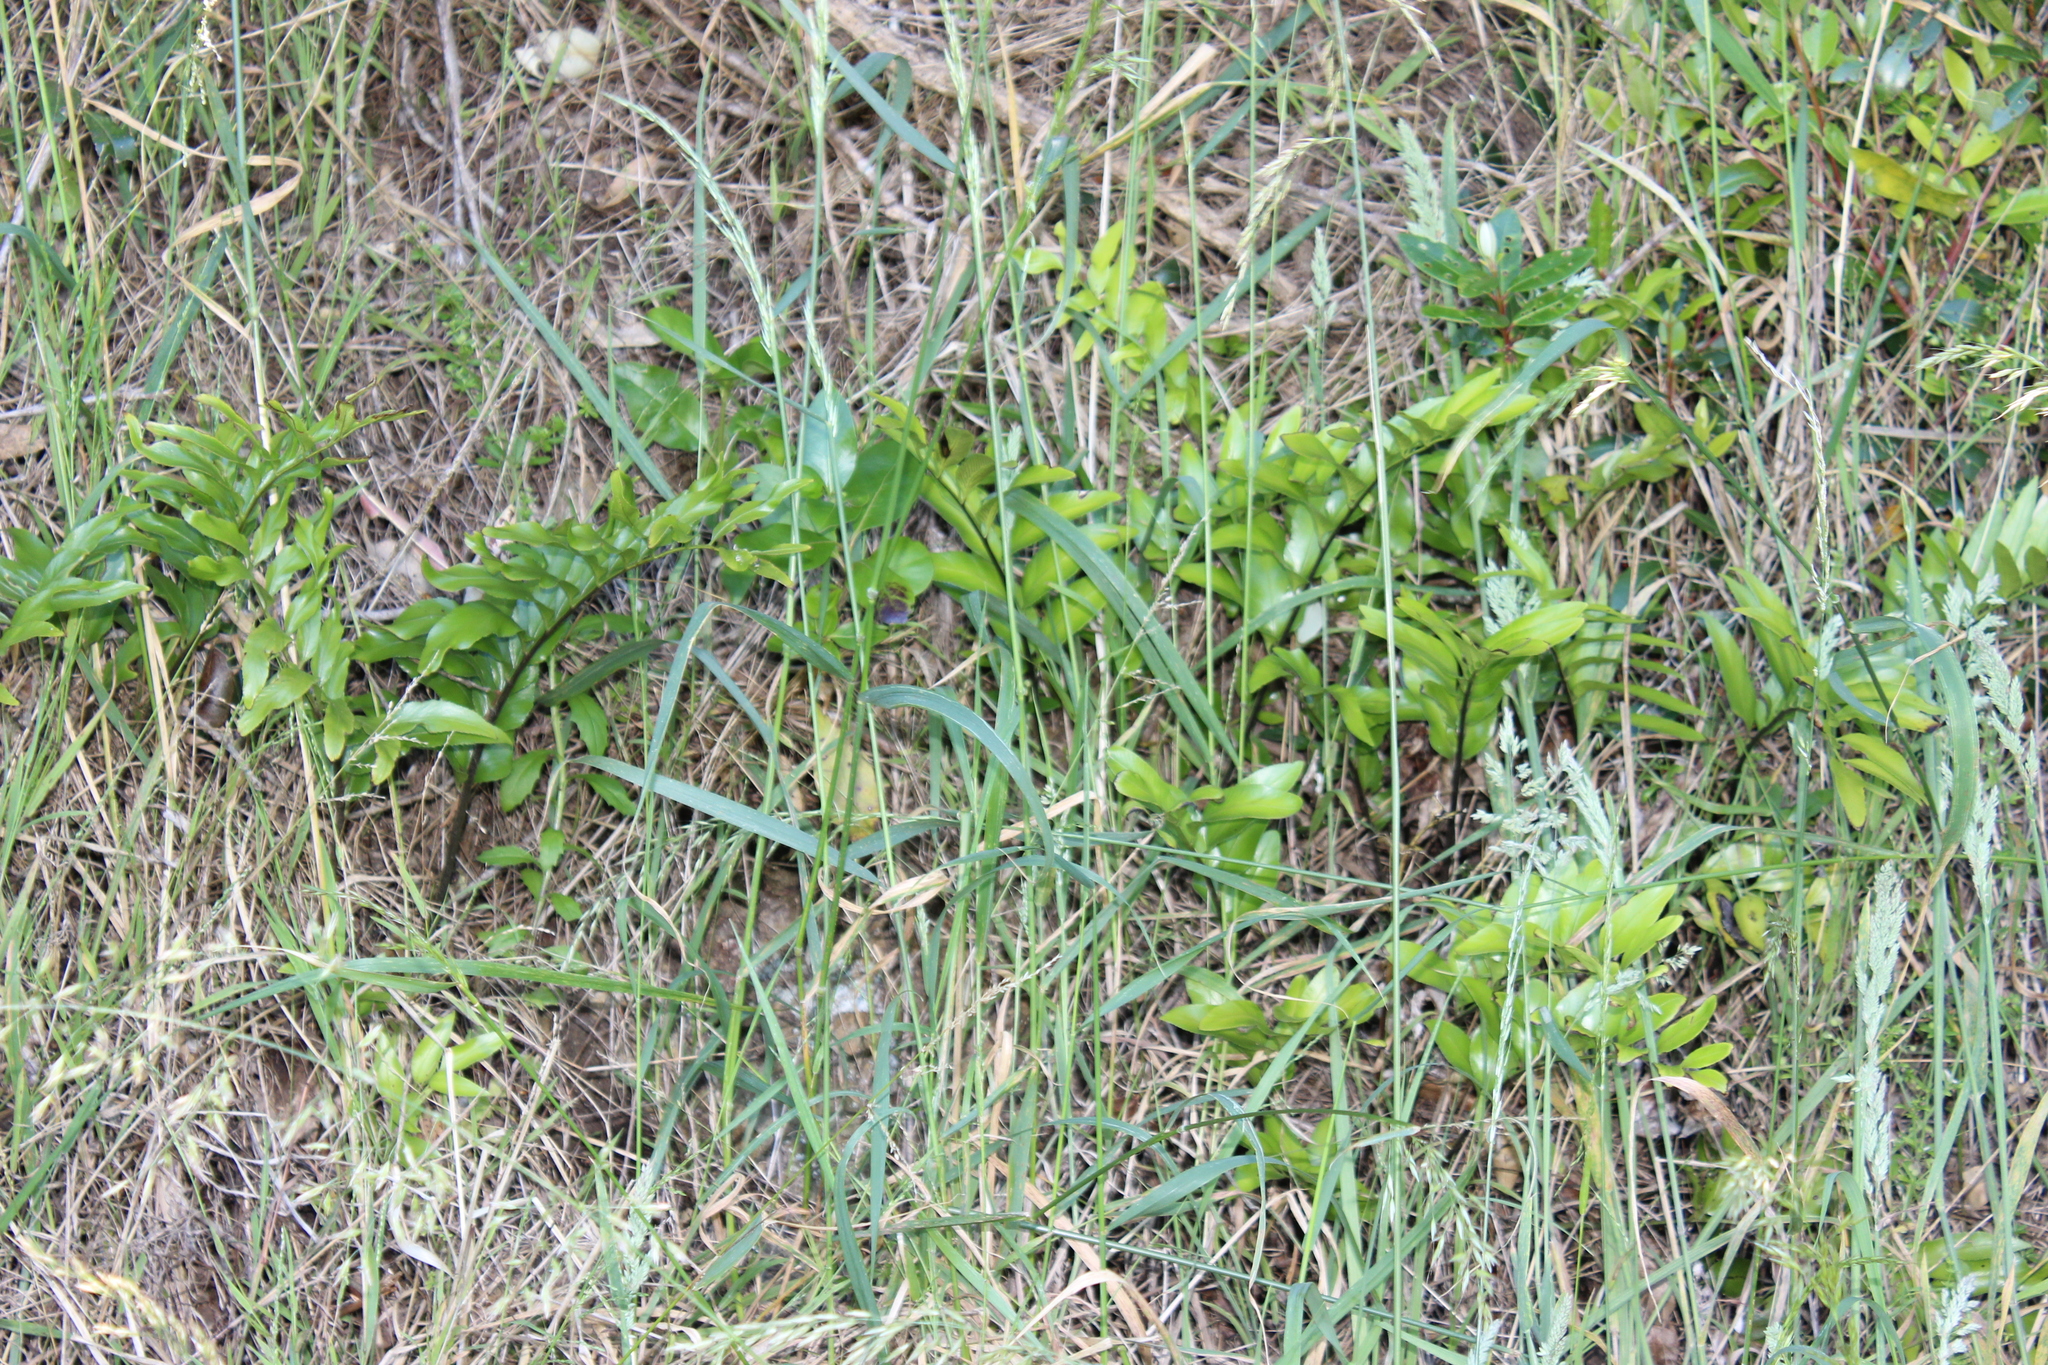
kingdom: Plantae
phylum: Tracheophyta
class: Polypodiopsida
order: Polypodiales
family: Aspleniaceae
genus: Asplenium
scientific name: Asplenium oblongifolium
